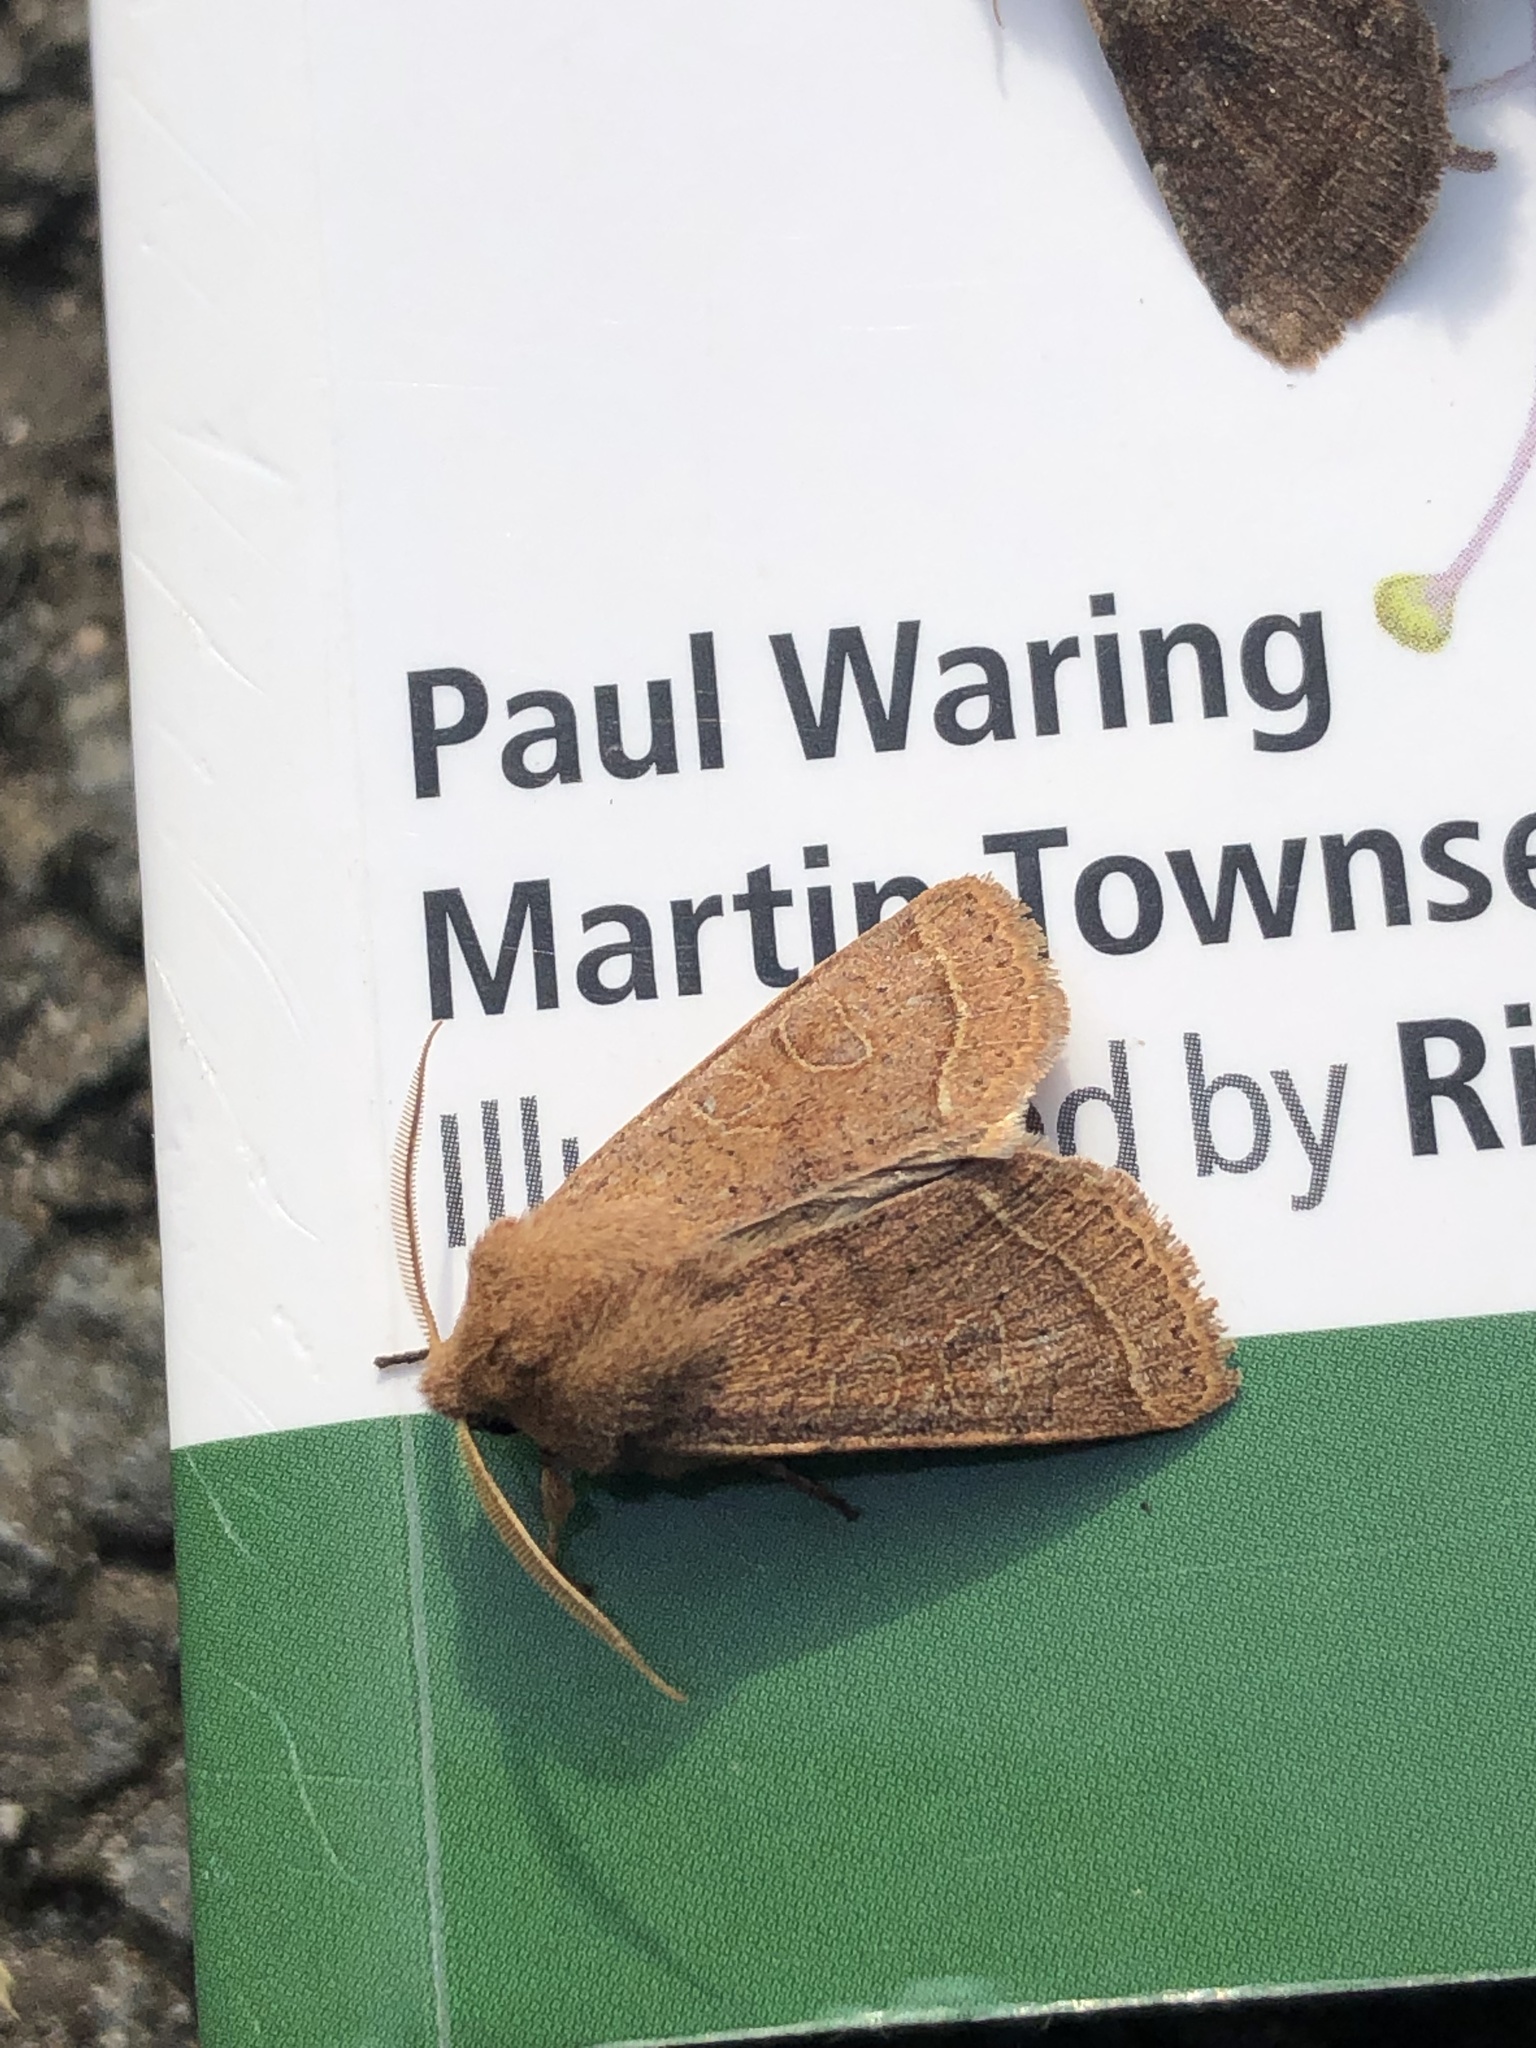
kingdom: Animalia
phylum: Arthropoda
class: Insecta
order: Lepidoptera
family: Noctuidae
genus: Orthosia
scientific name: Orthosia cerasi
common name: Common quaker
